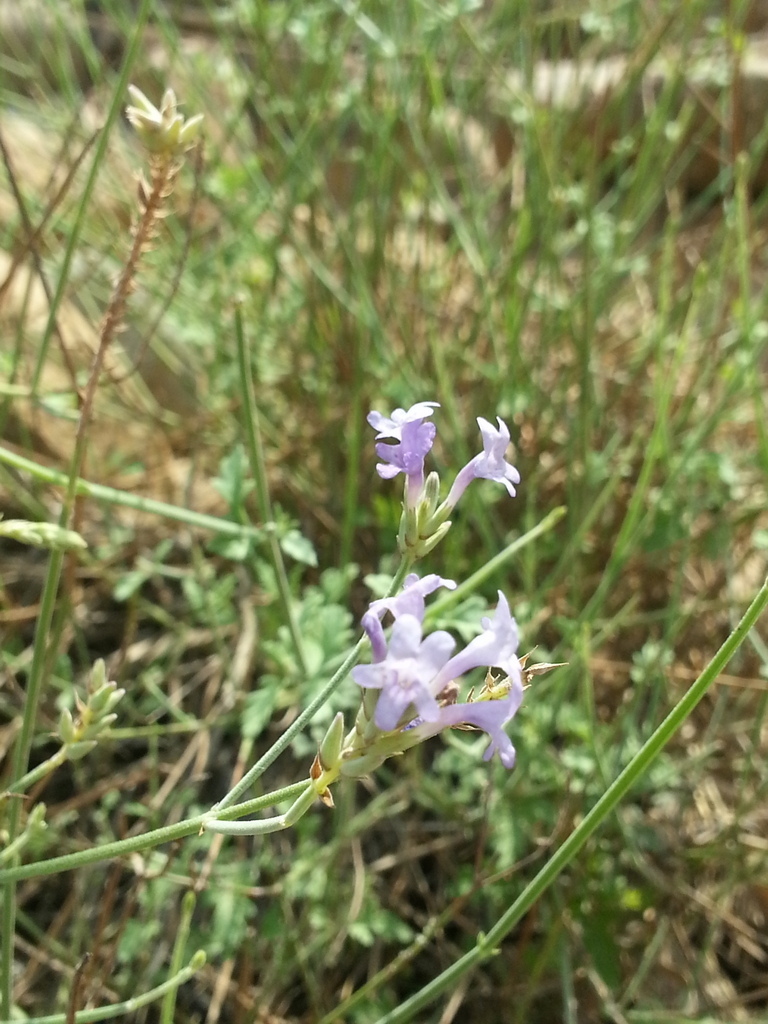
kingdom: Plantae
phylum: Tracheophyta
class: Magnoliopsida
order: Lamiales
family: Lamiaceae
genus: Lavandula
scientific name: Lavandula subnuda
